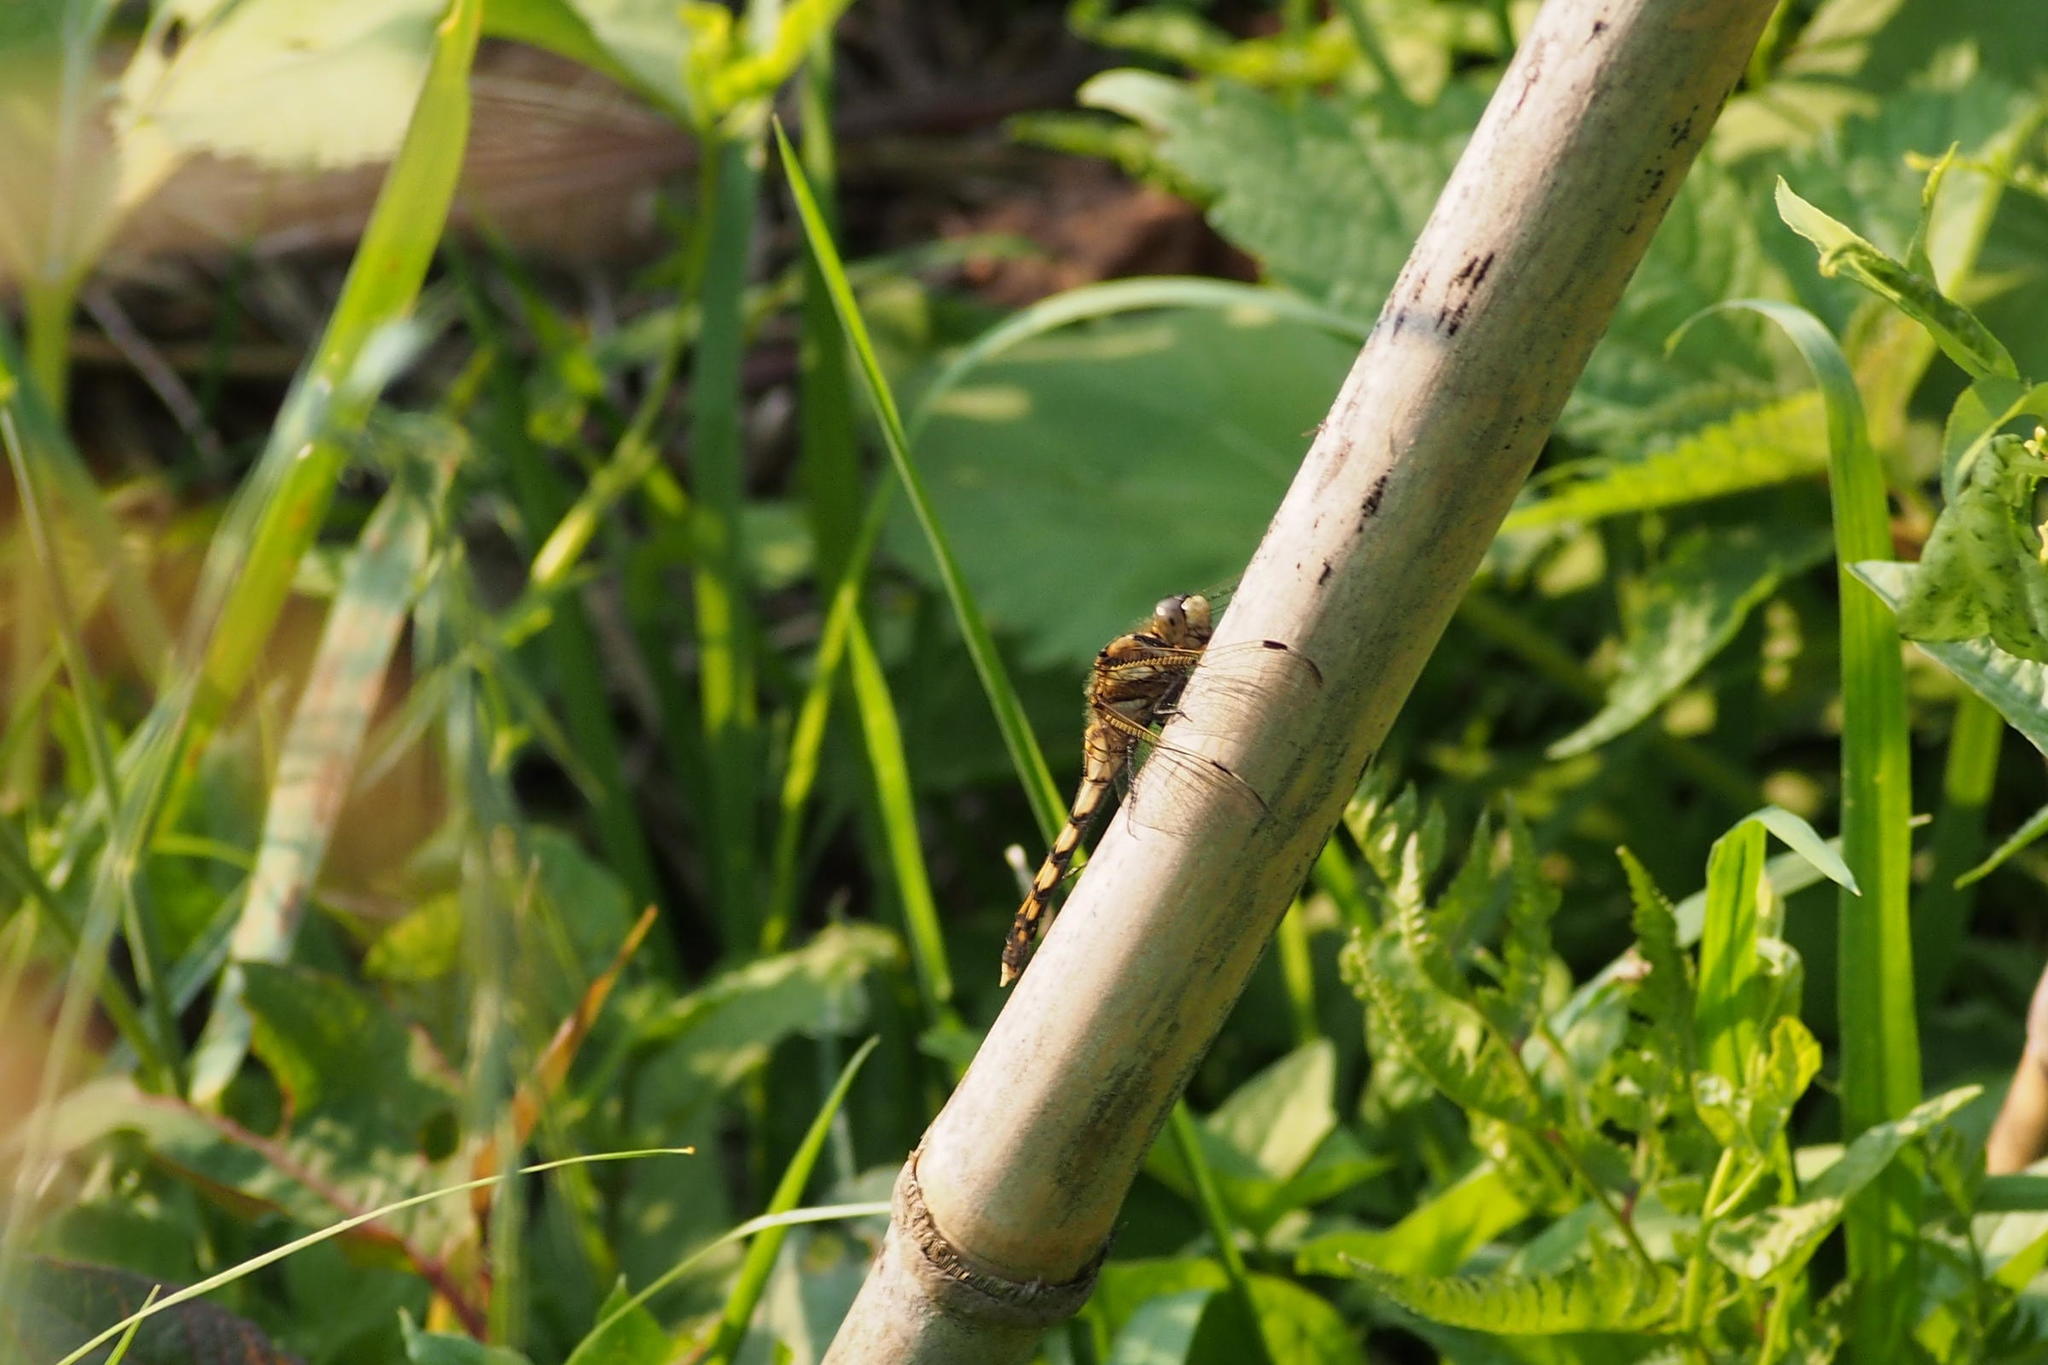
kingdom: Animalia
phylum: Arthropoda
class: Insecta
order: Odonata
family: Libellulidae
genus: Orthetrum
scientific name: Orthetrum albistylum
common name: White-tailed skimmer
